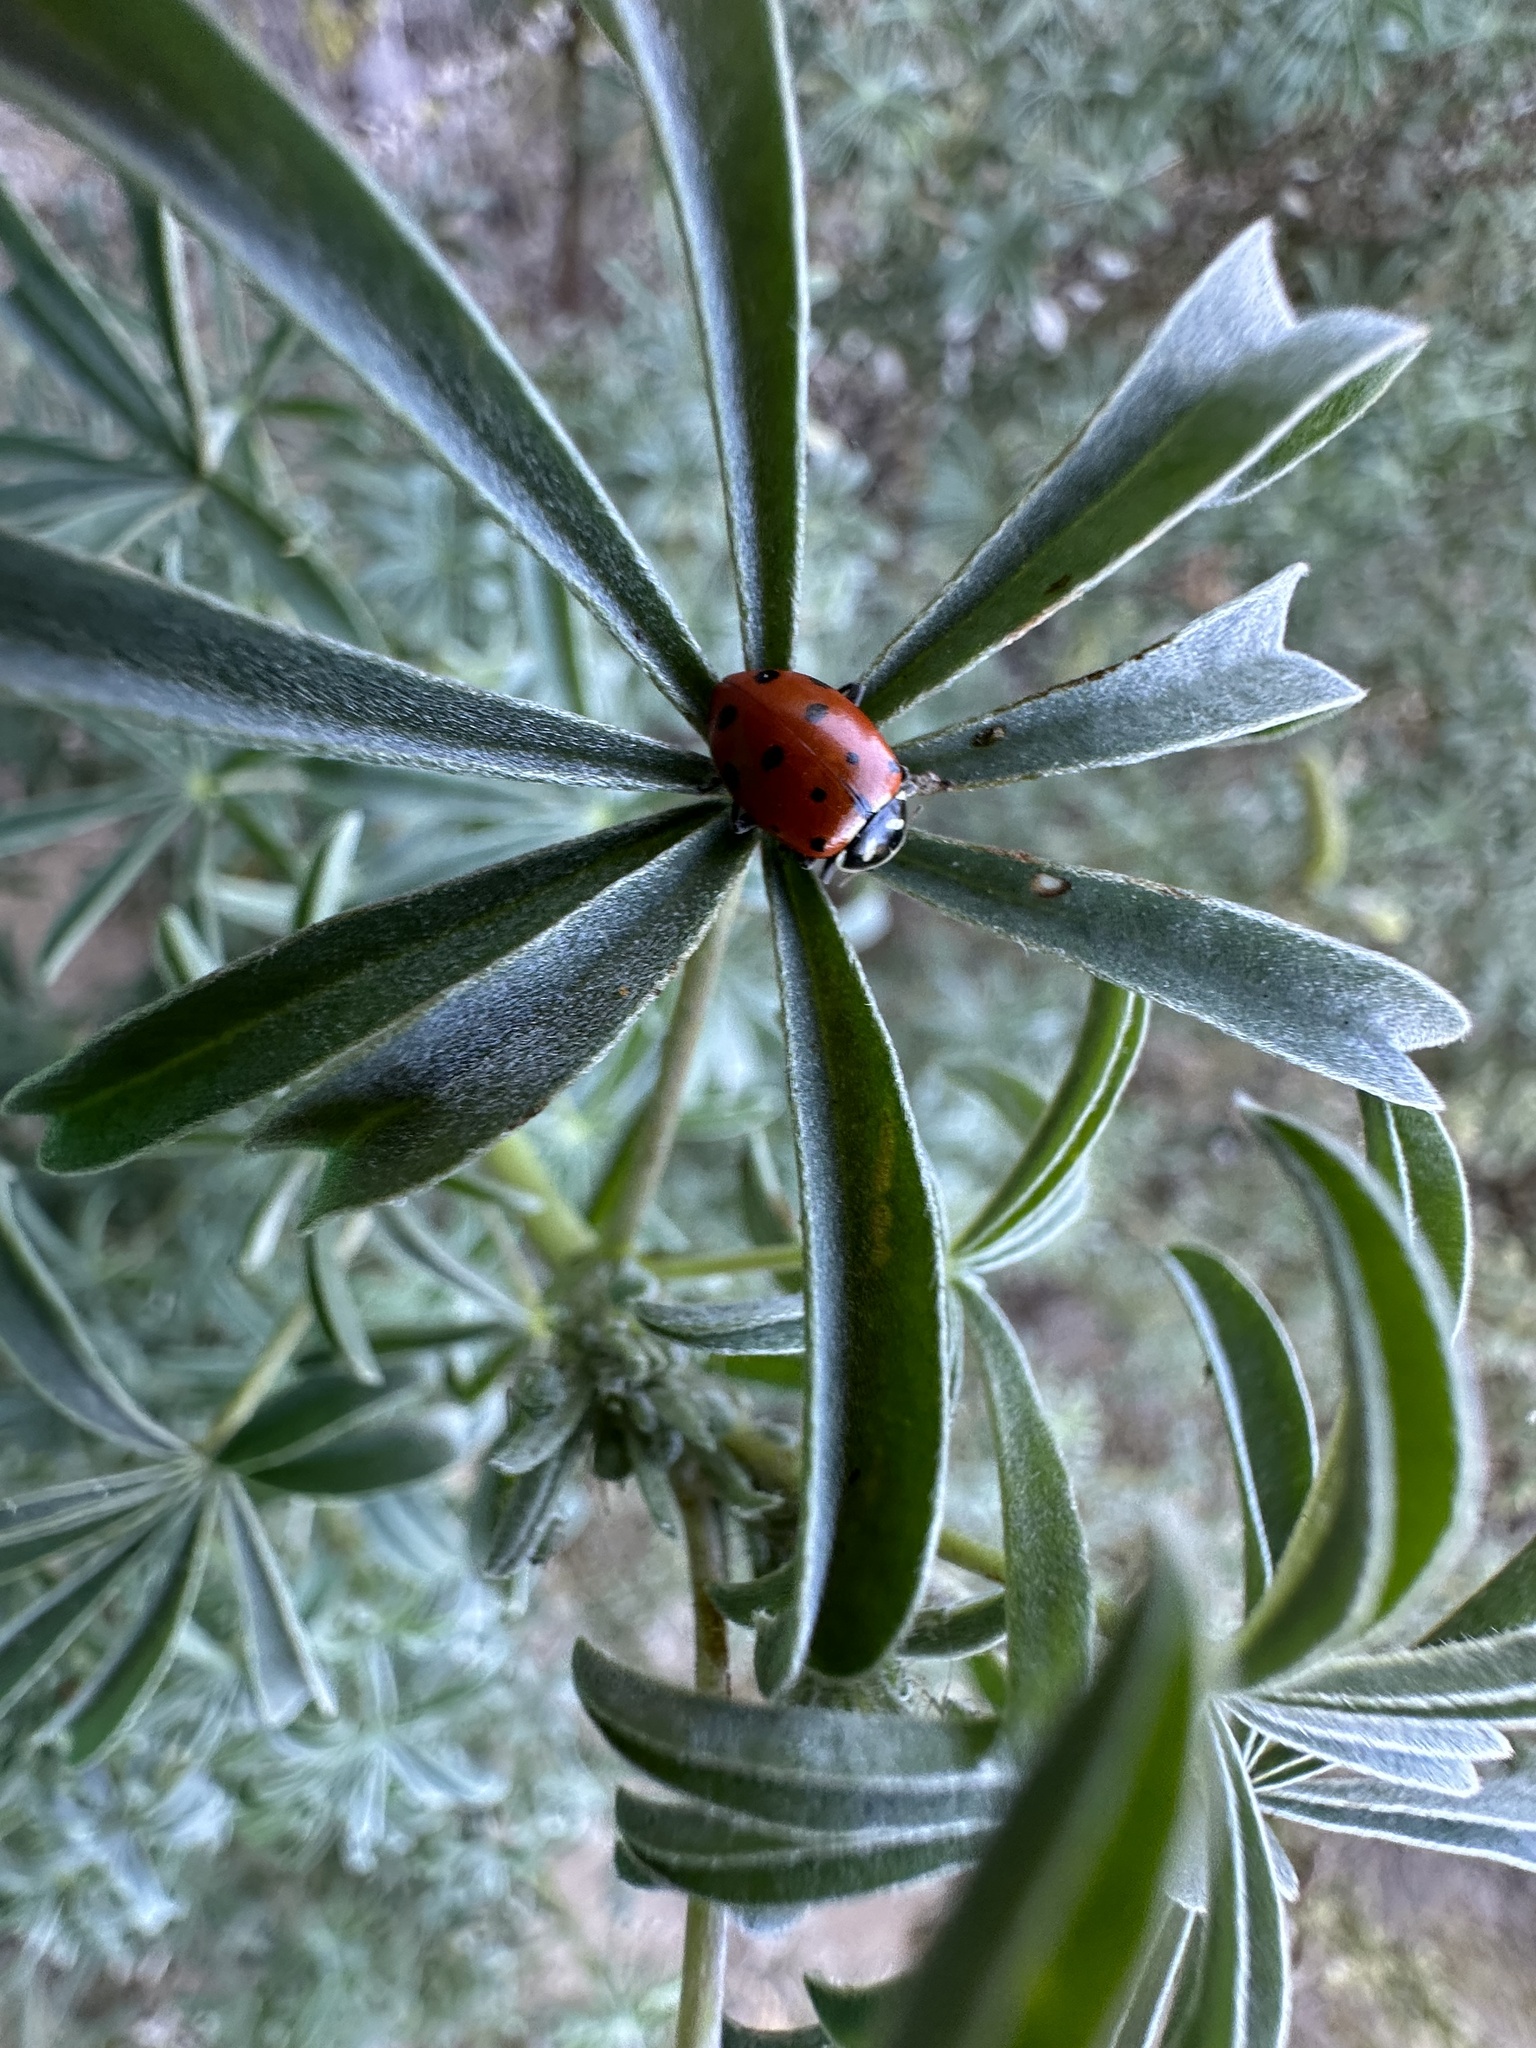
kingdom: Animalia
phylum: Arthropoda
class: Insecta
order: Coleoptera
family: Coccinellidae
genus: Hippodamia
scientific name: Hippodamia convergens
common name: Convergent lady beetle
